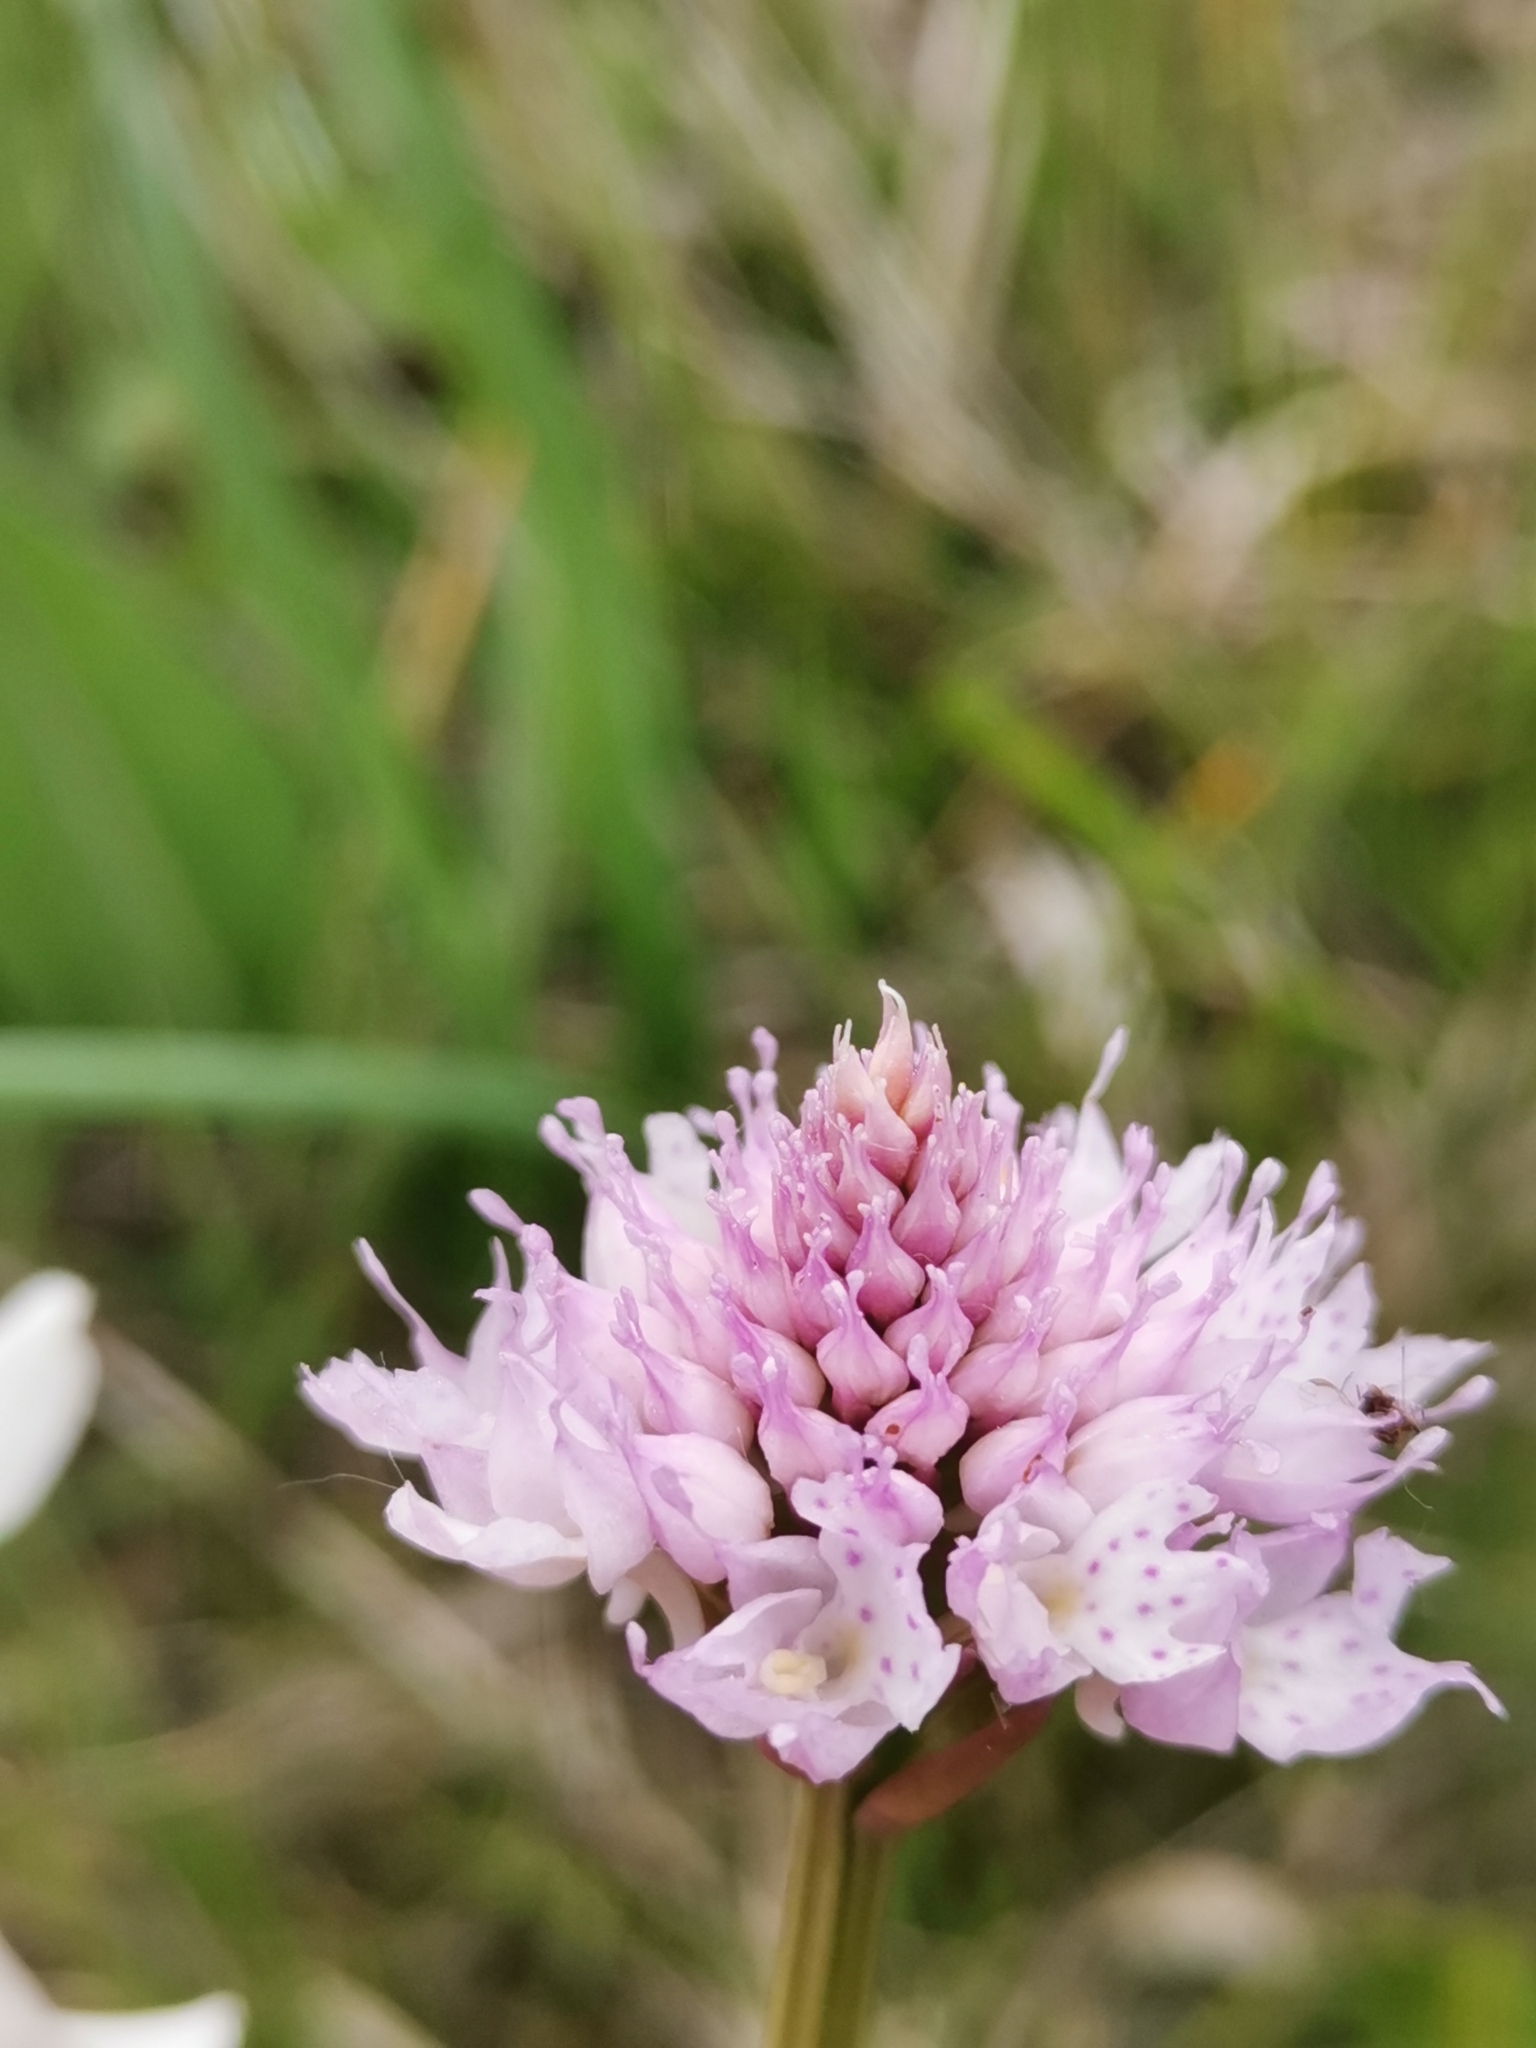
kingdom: Plantae
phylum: Tracheophyta
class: Liliopsida
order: Asparagales
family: Orchidaceae
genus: Traunsteinera
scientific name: Traunsteinera globosa
